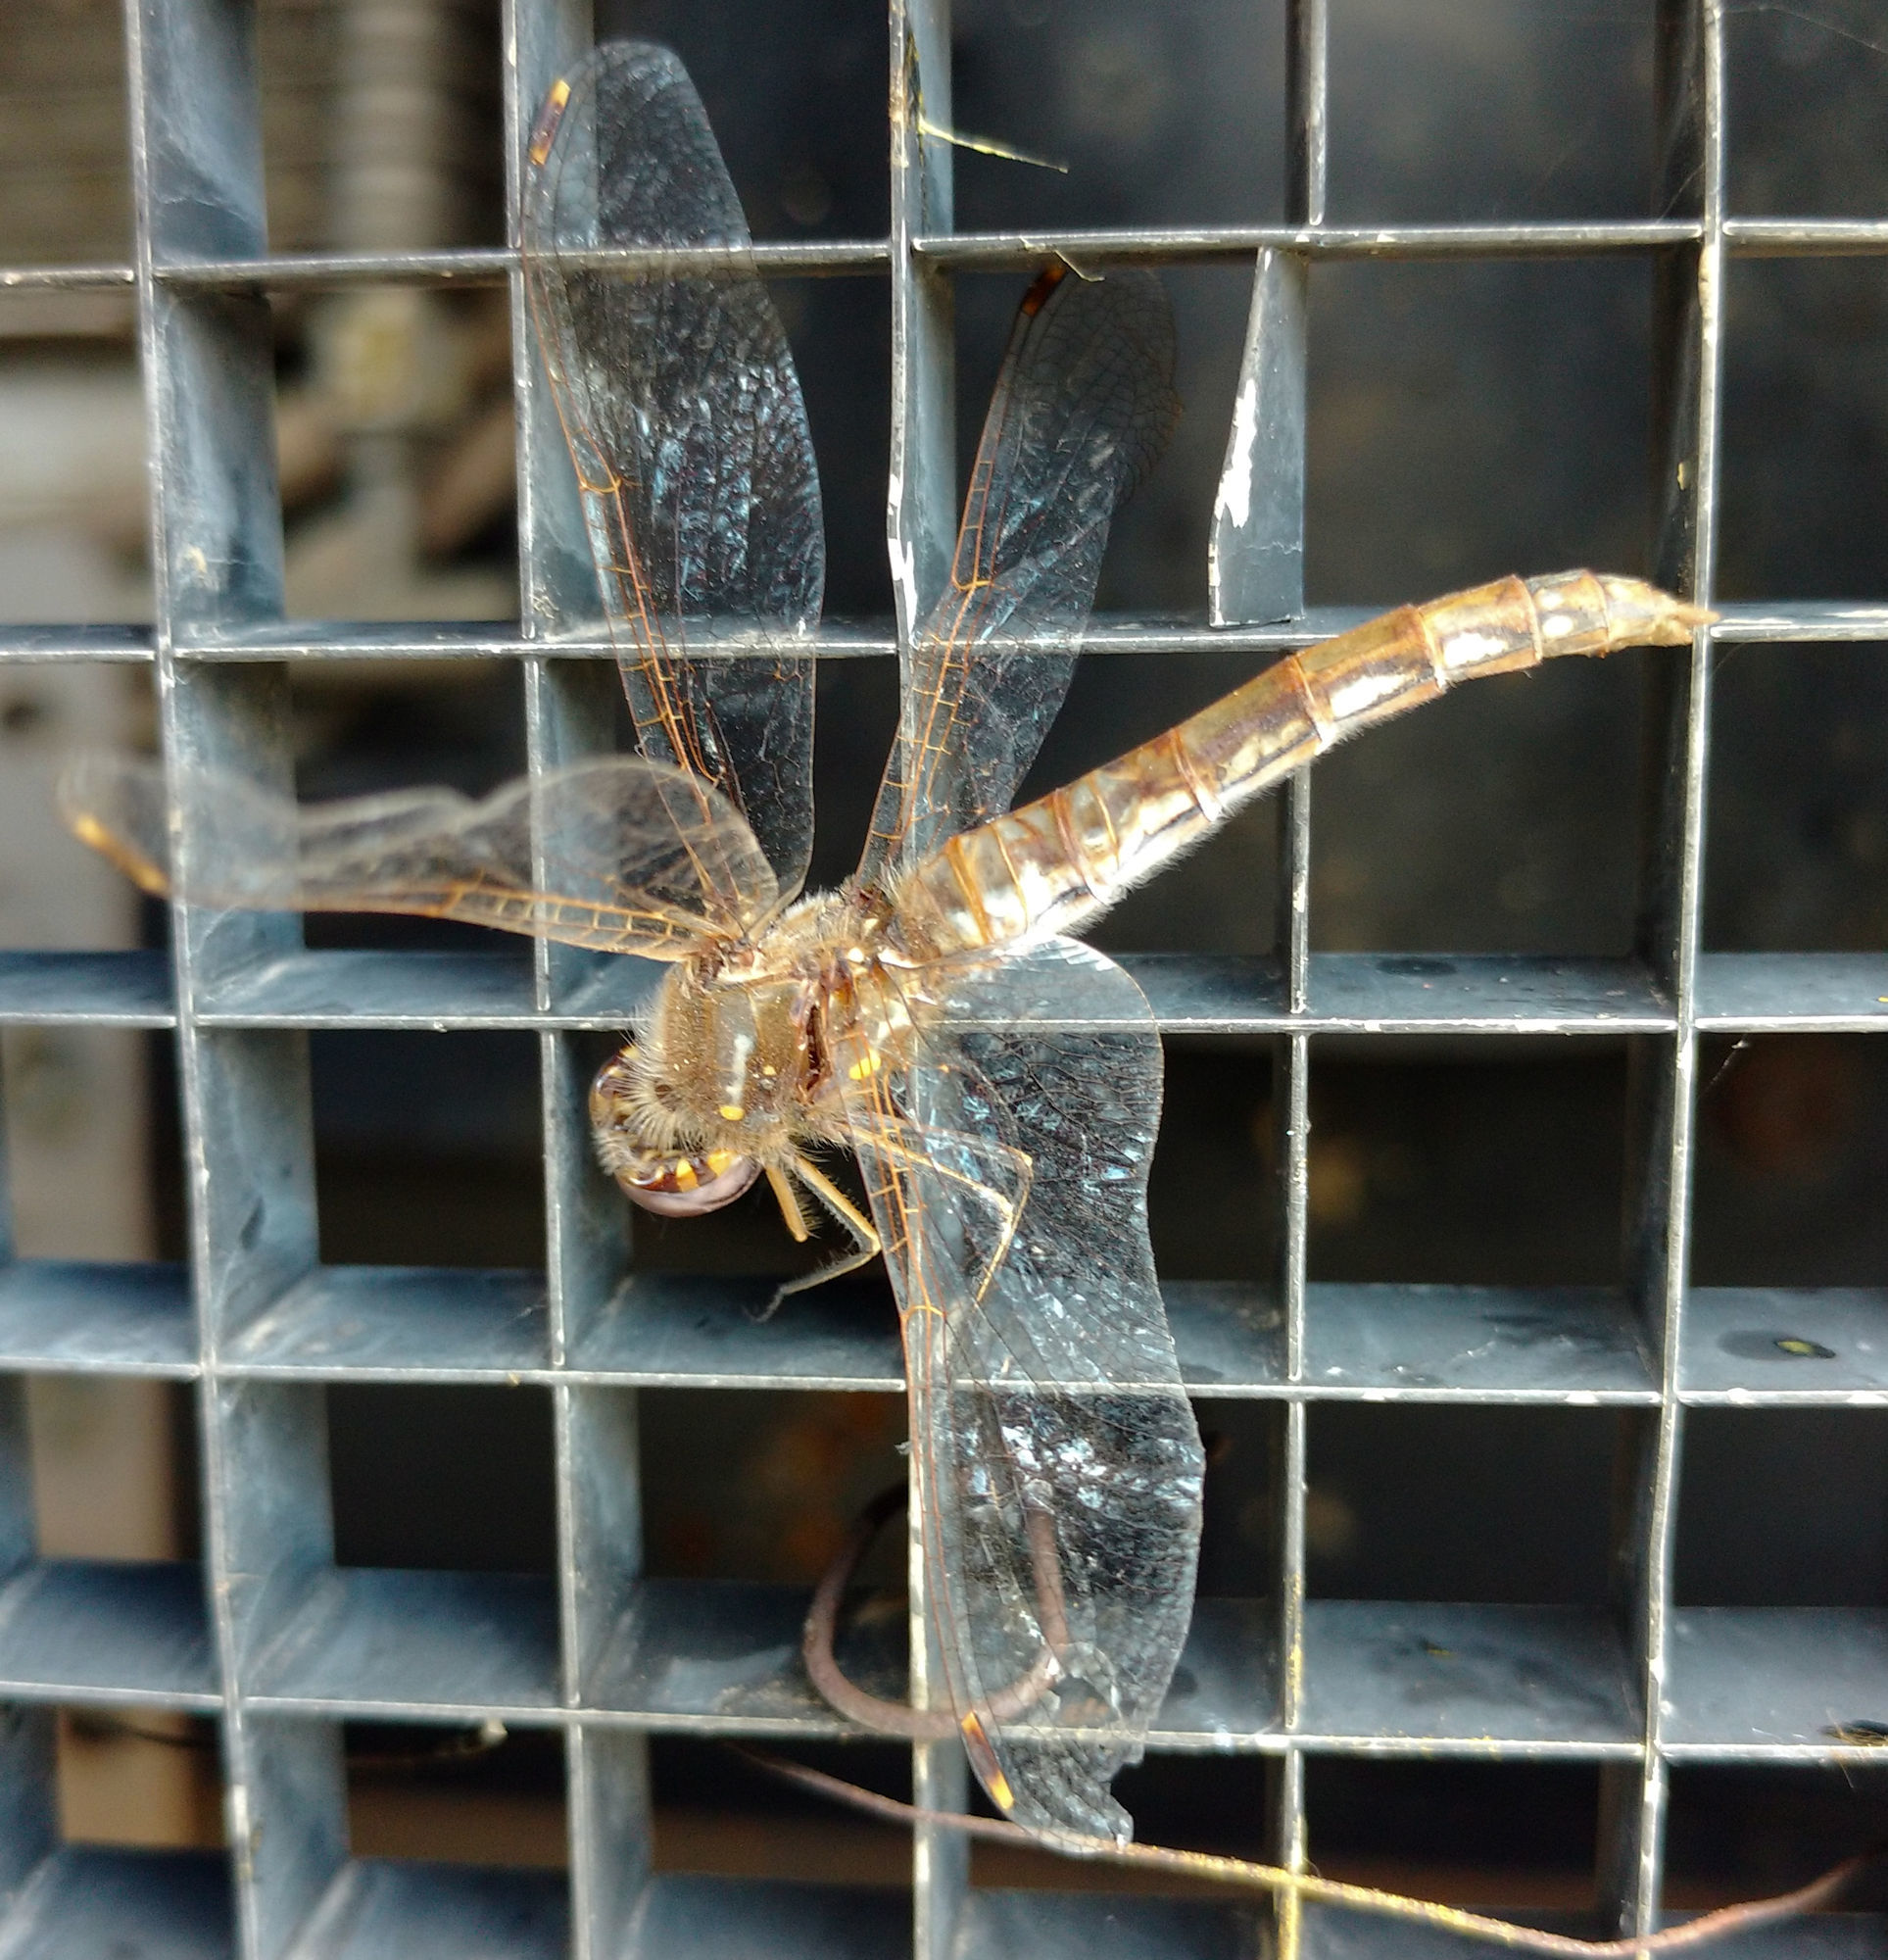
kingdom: Animalia
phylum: Arthropoda
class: Insecta
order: Odonata
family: Libellulidae
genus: Sympetrum
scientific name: Sympetrum corruptum
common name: Variegated meadowhawk
